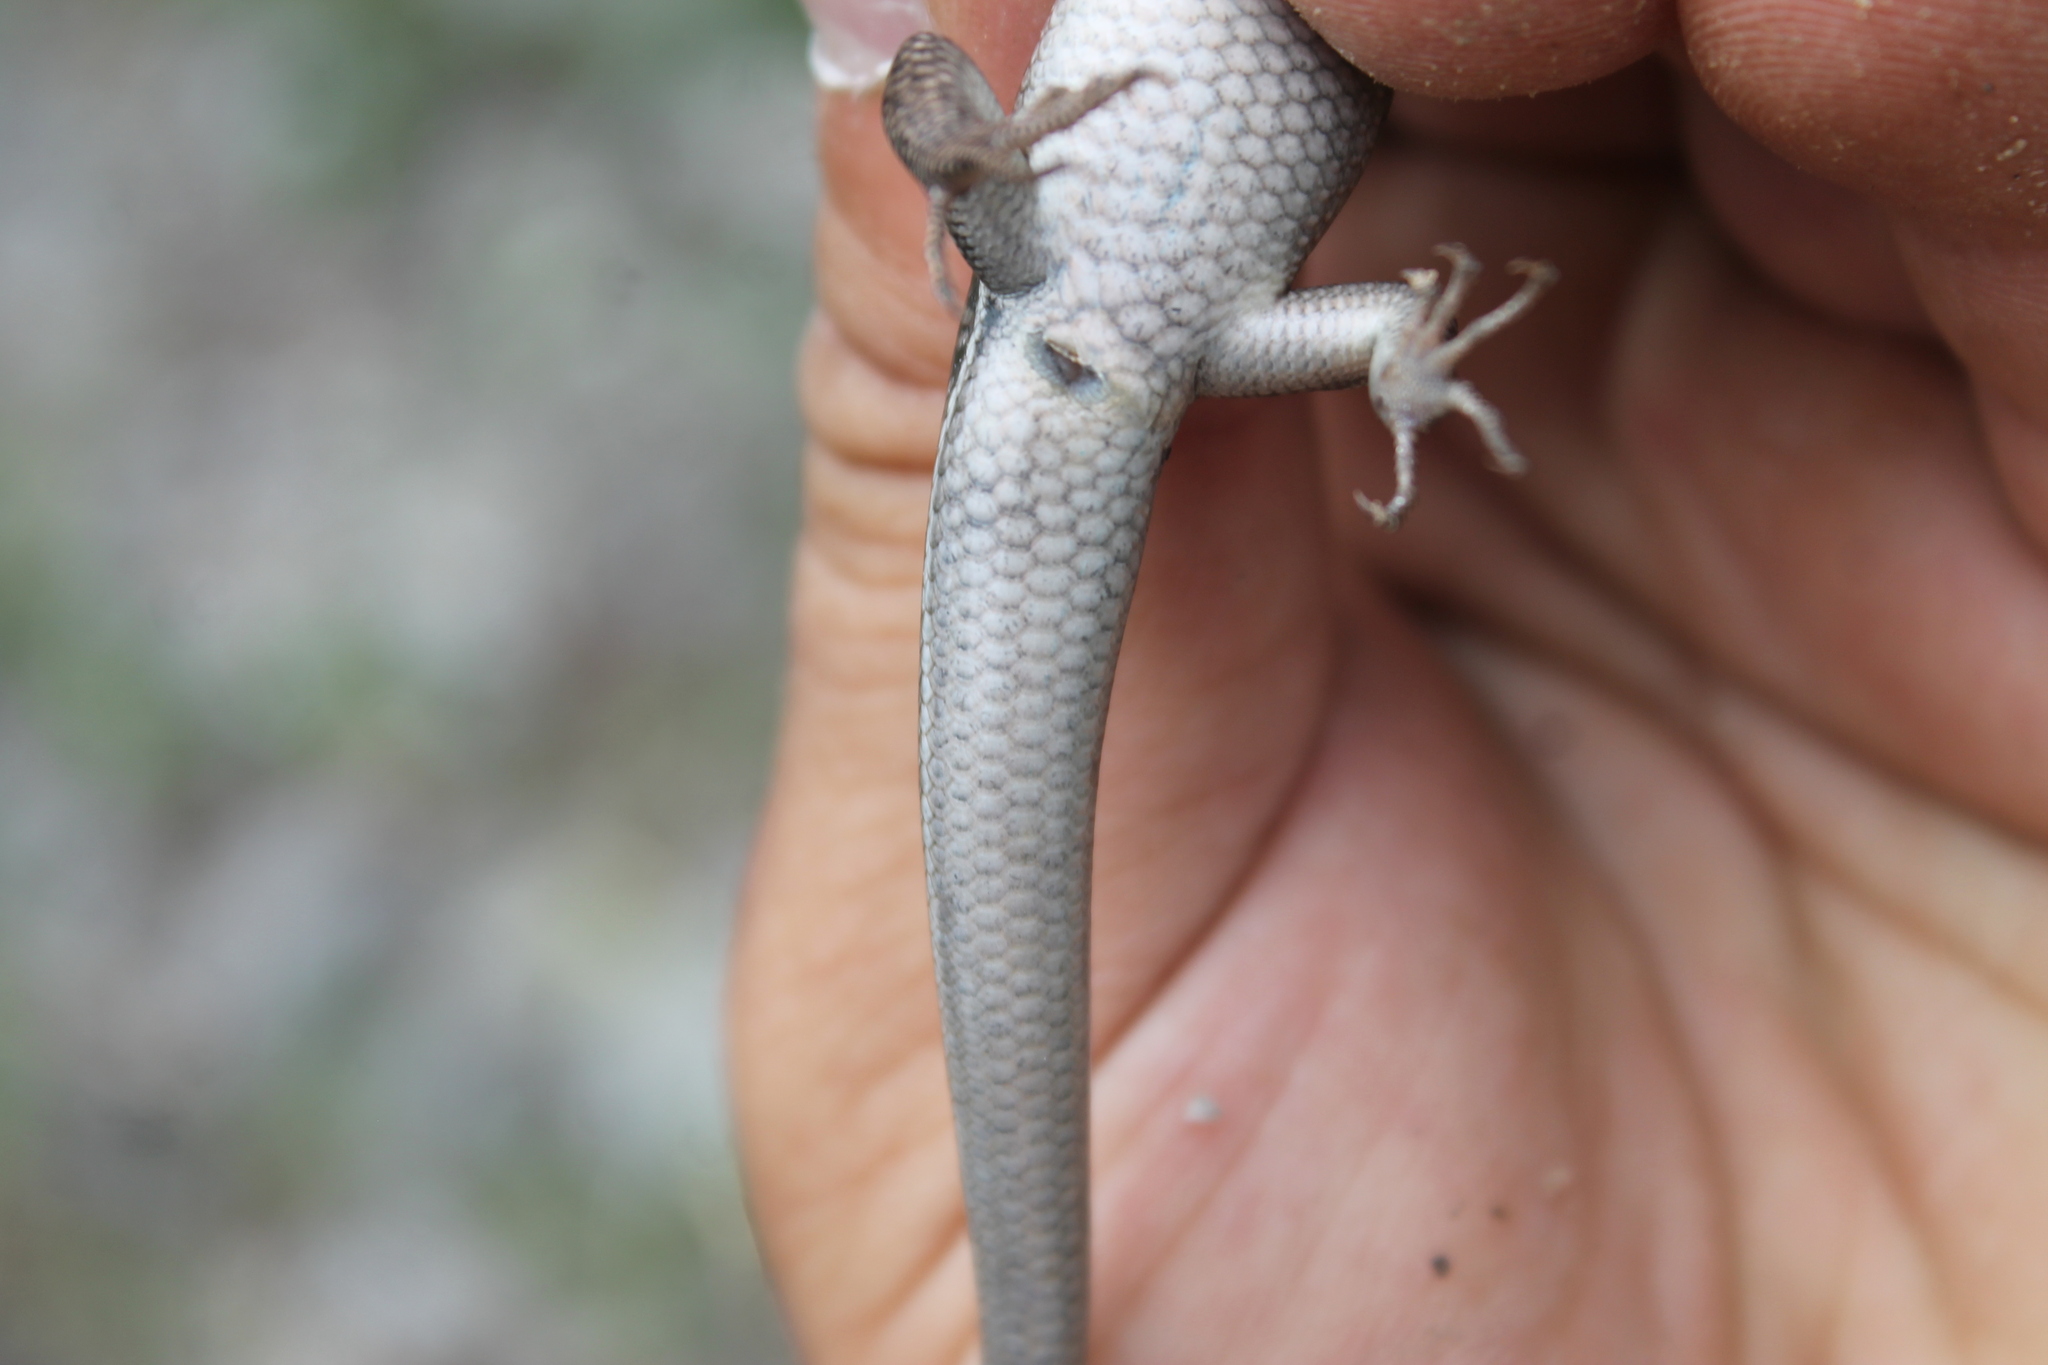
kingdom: Animalia
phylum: Chordata
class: Squamata
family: Scincidae
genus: Plestiodon
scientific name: Plestiodon inexpectatus
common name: Southeastern five-lined skink
